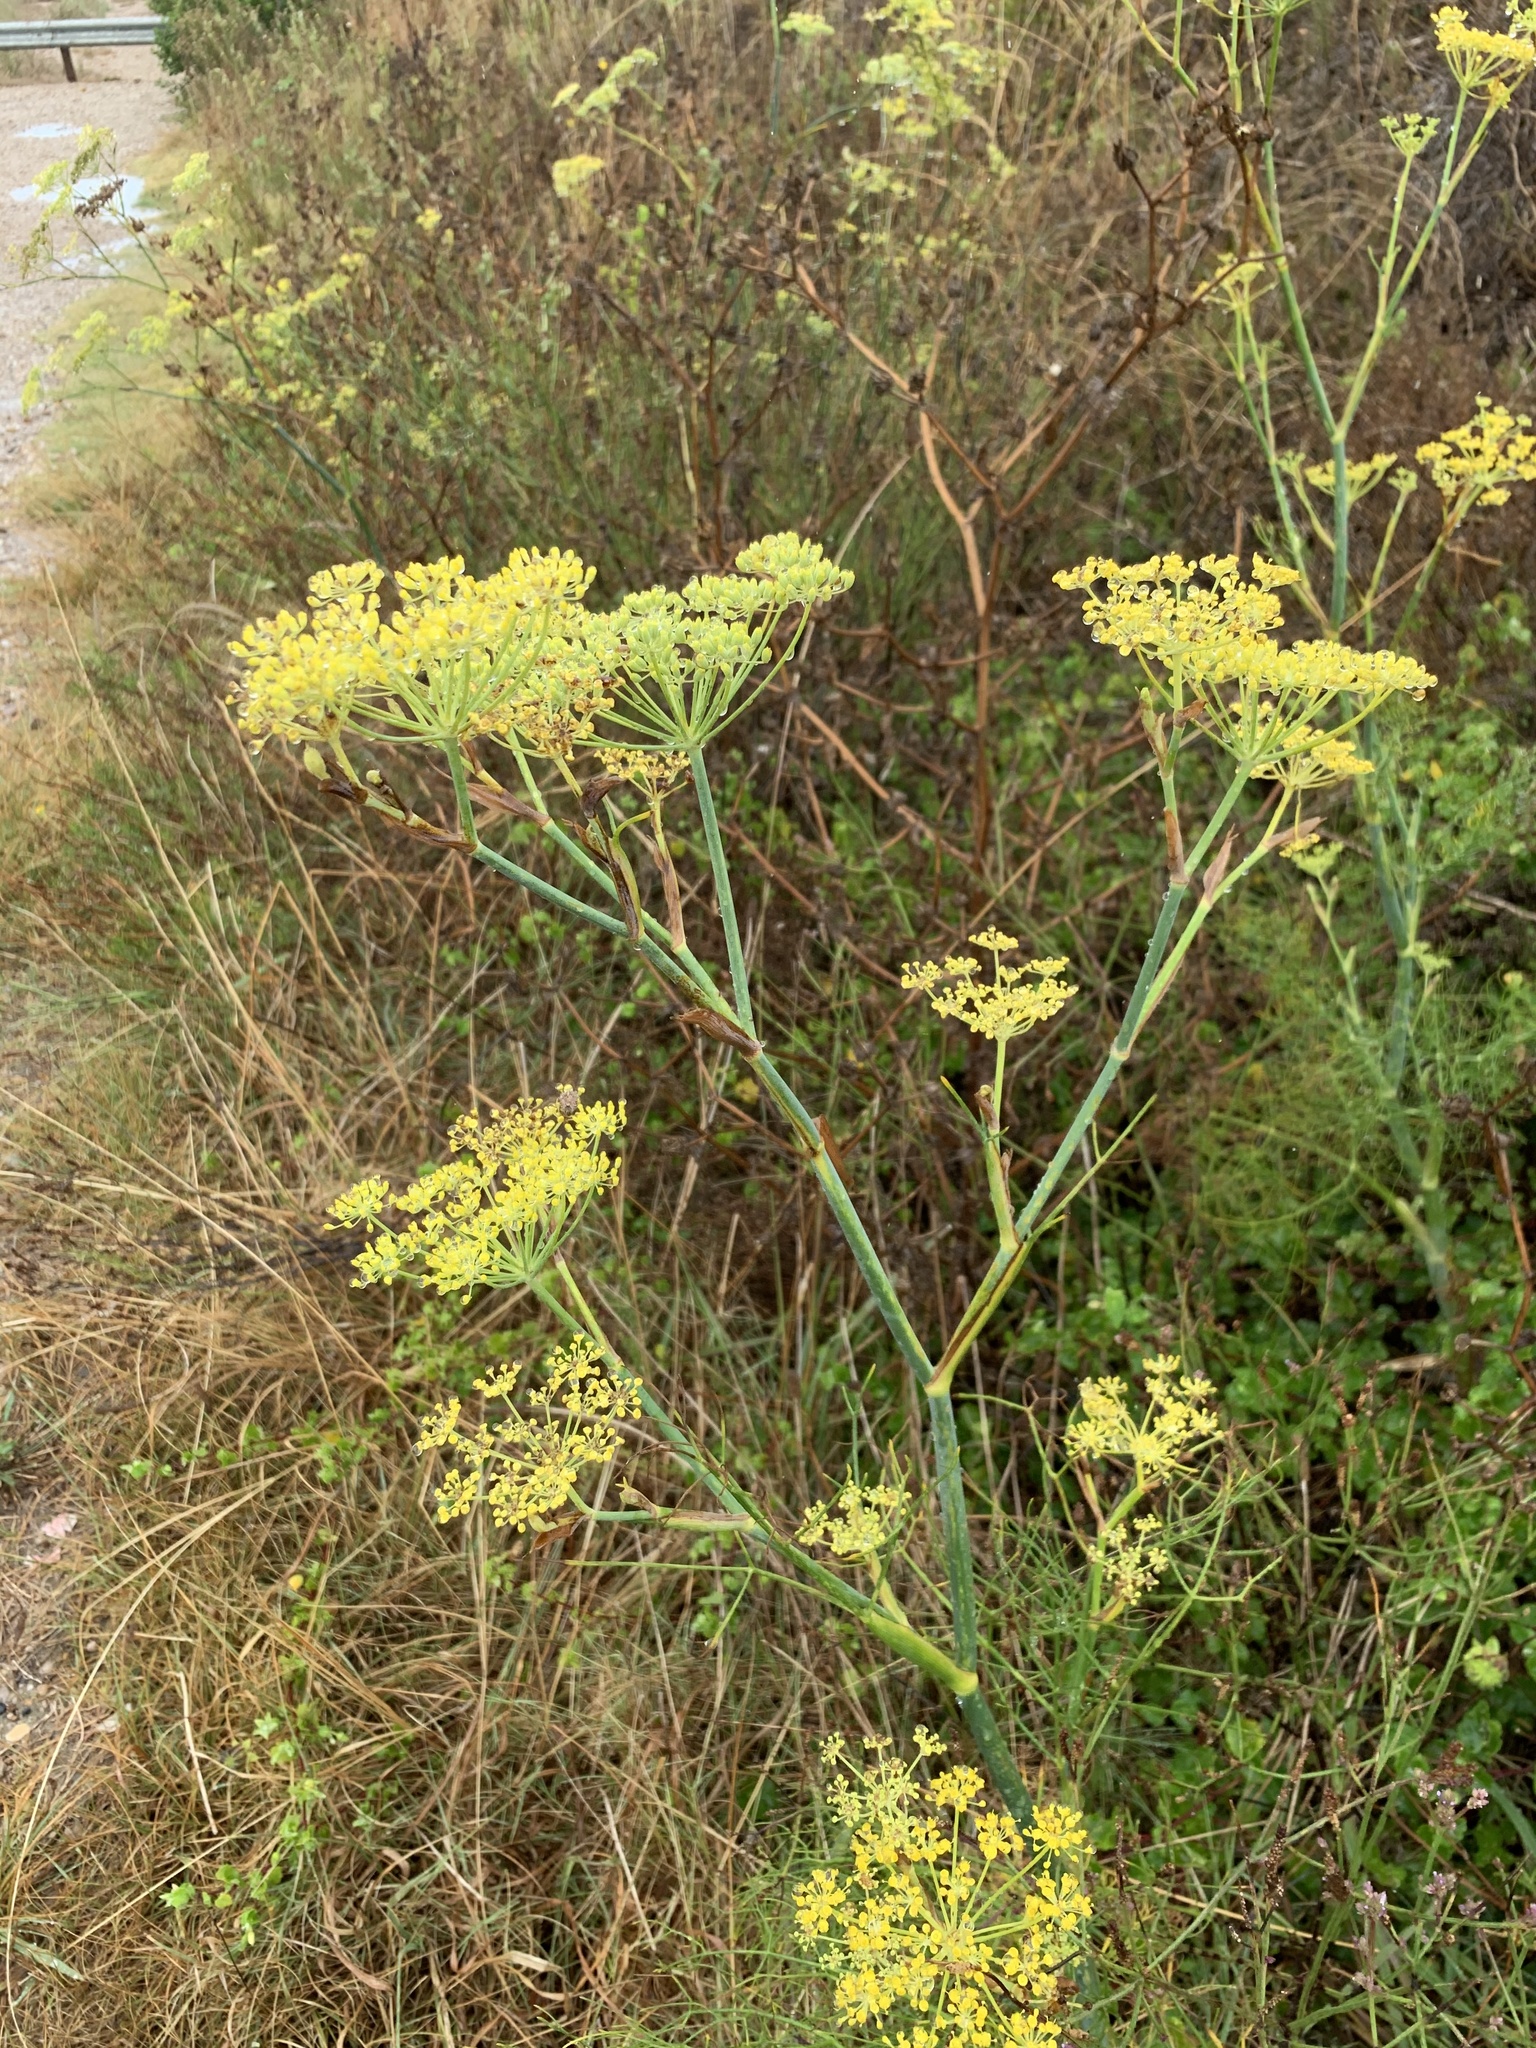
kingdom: Plantae
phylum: Tracheophyta
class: Magnoliopsida
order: Apiales
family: Apiaceae
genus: Foeniculum
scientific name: Foeniculum vulgare
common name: Fennel
